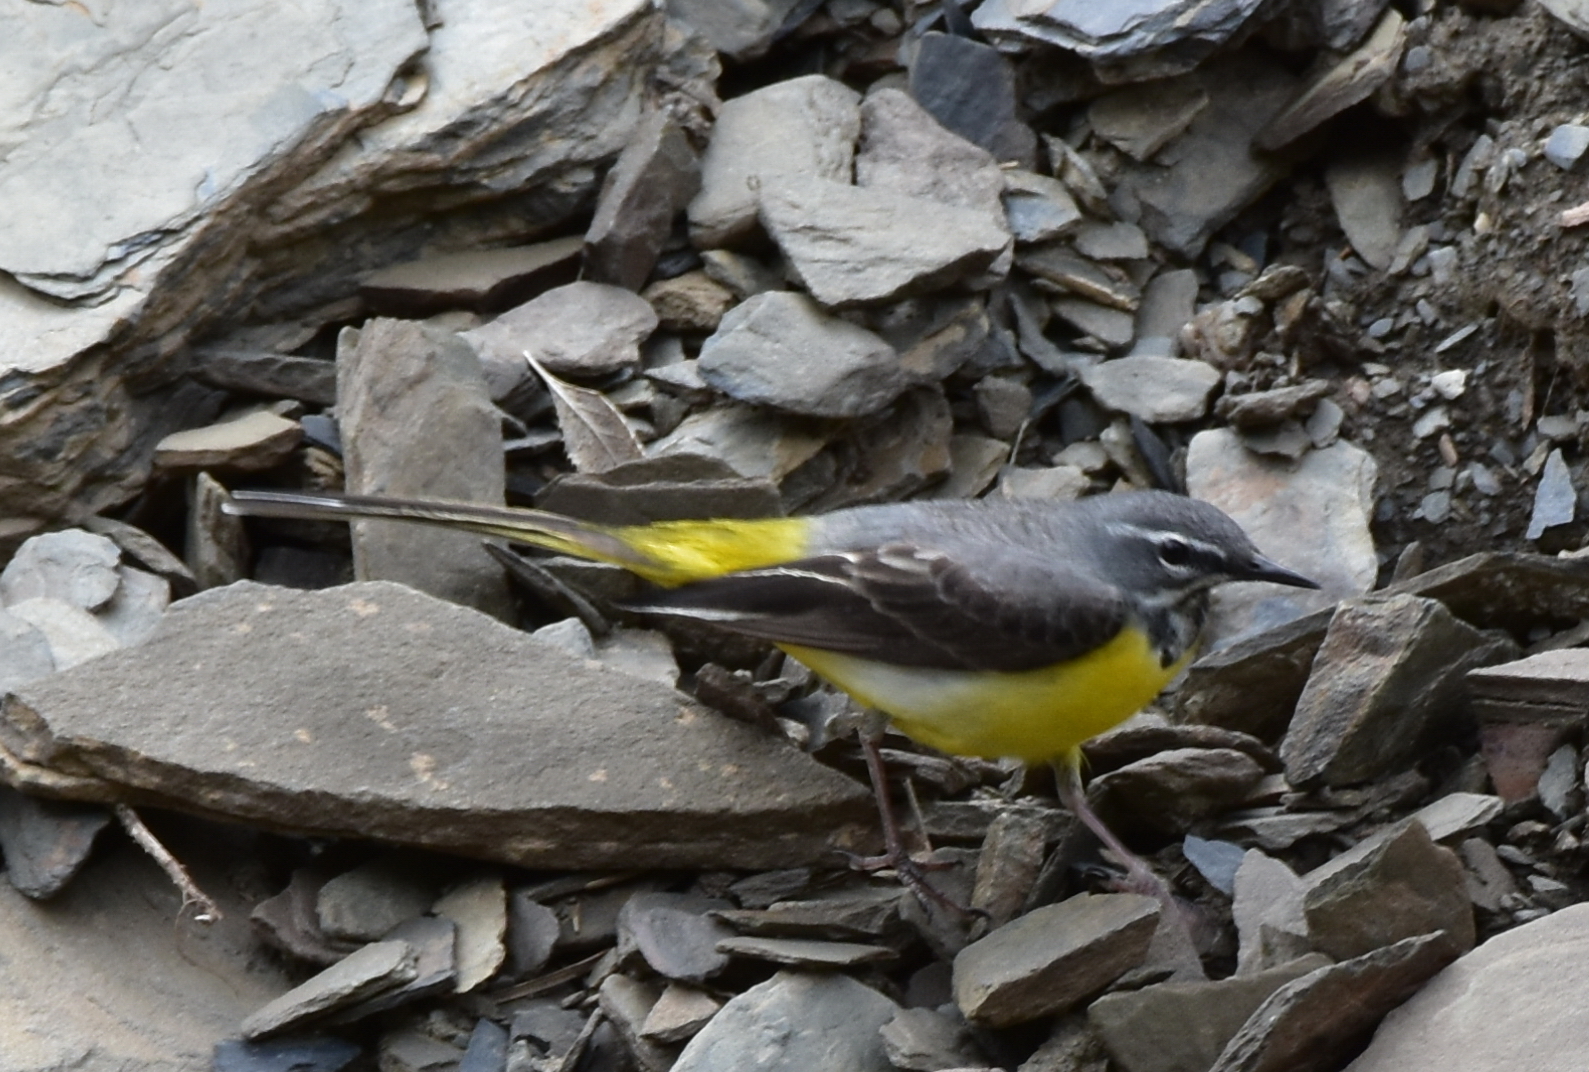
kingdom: Animalia
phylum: Chordata
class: Aves
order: Passeriformes
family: Motacillidae
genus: Motacilla
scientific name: Motacilla cinerea
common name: Grey wagtail
